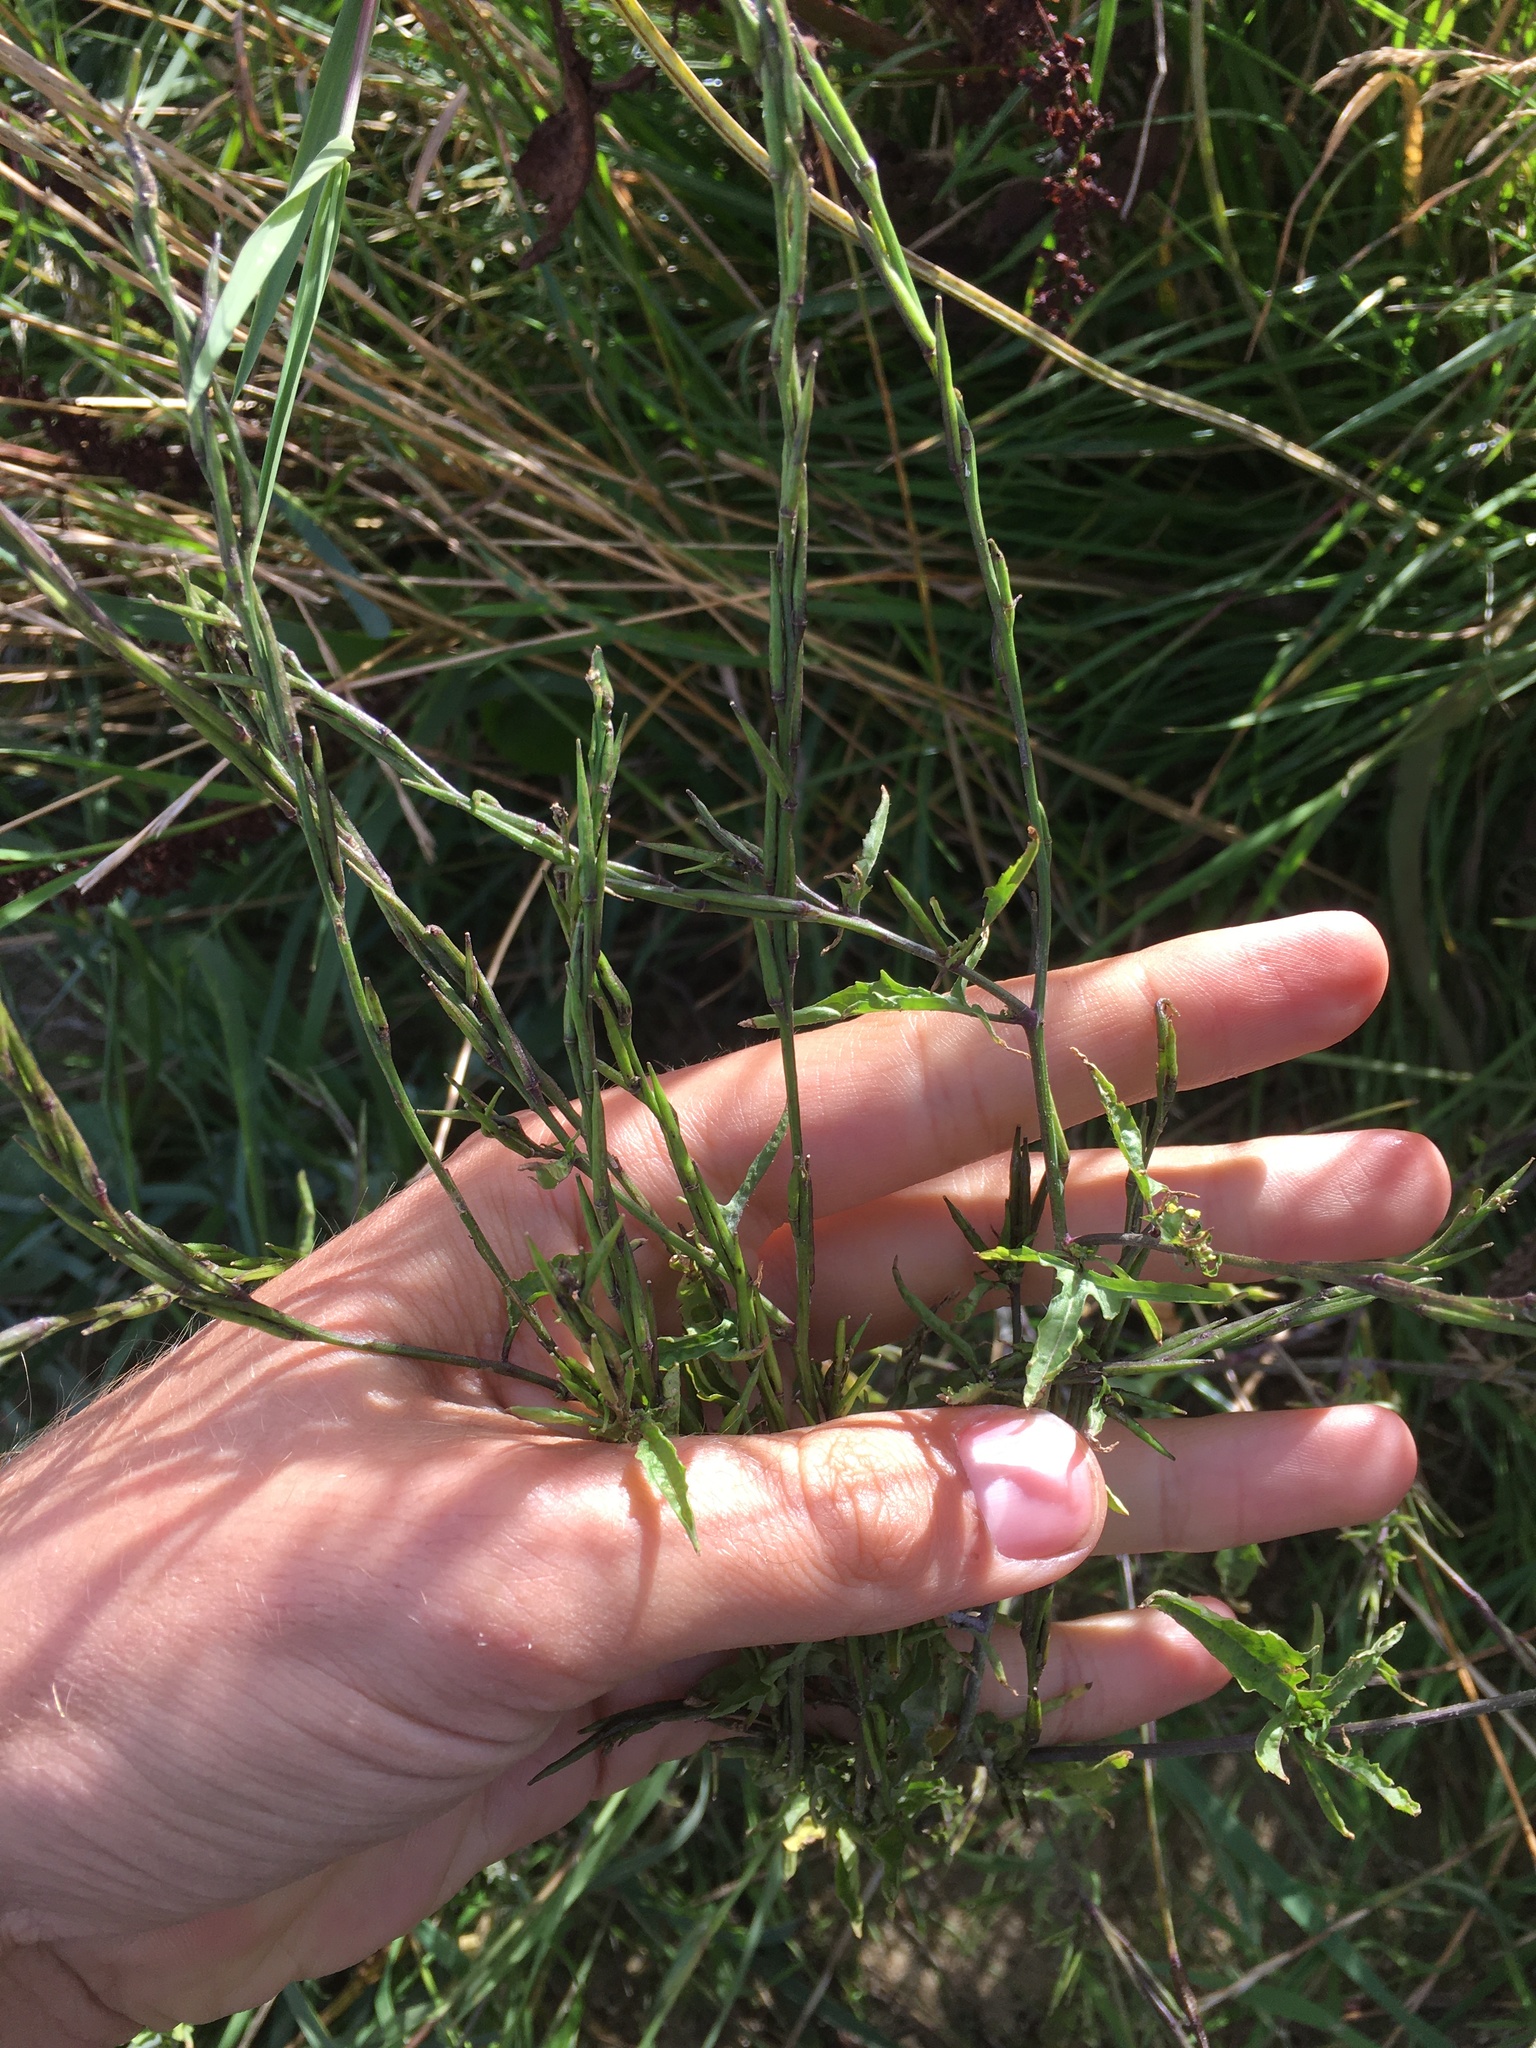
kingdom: Plantae
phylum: Tracheophyta
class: Magnoliopsida
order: Brassicales
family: Brassicaceae
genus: Sisymbrium
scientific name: Sisymbrium officinale
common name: Hedge mustard
